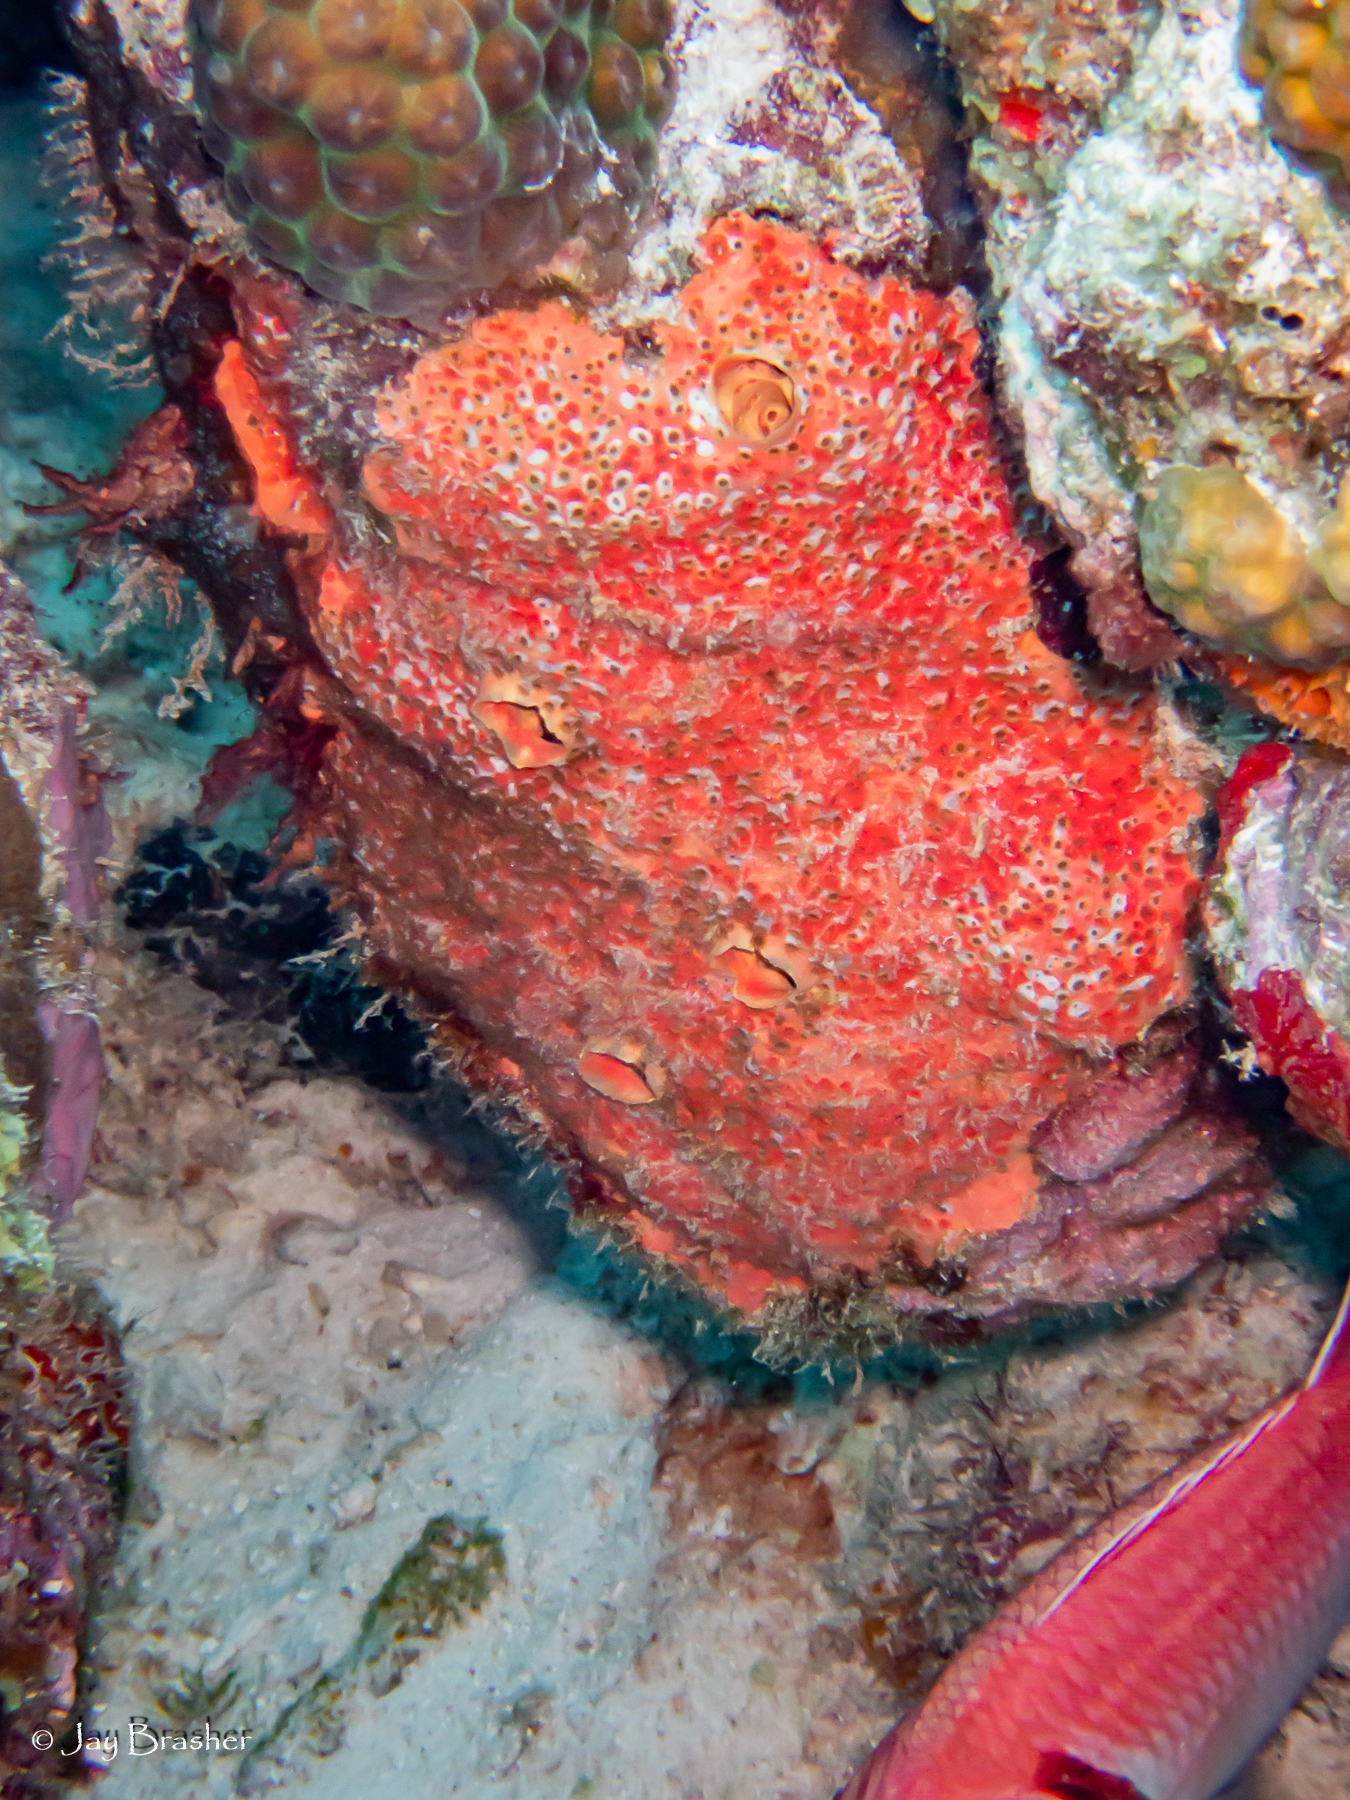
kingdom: Animalia
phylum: Porifera
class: Demospongiae
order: Clionaida
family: Clionaidae
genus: Cliothosa
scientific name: Cliothosa delitrix
